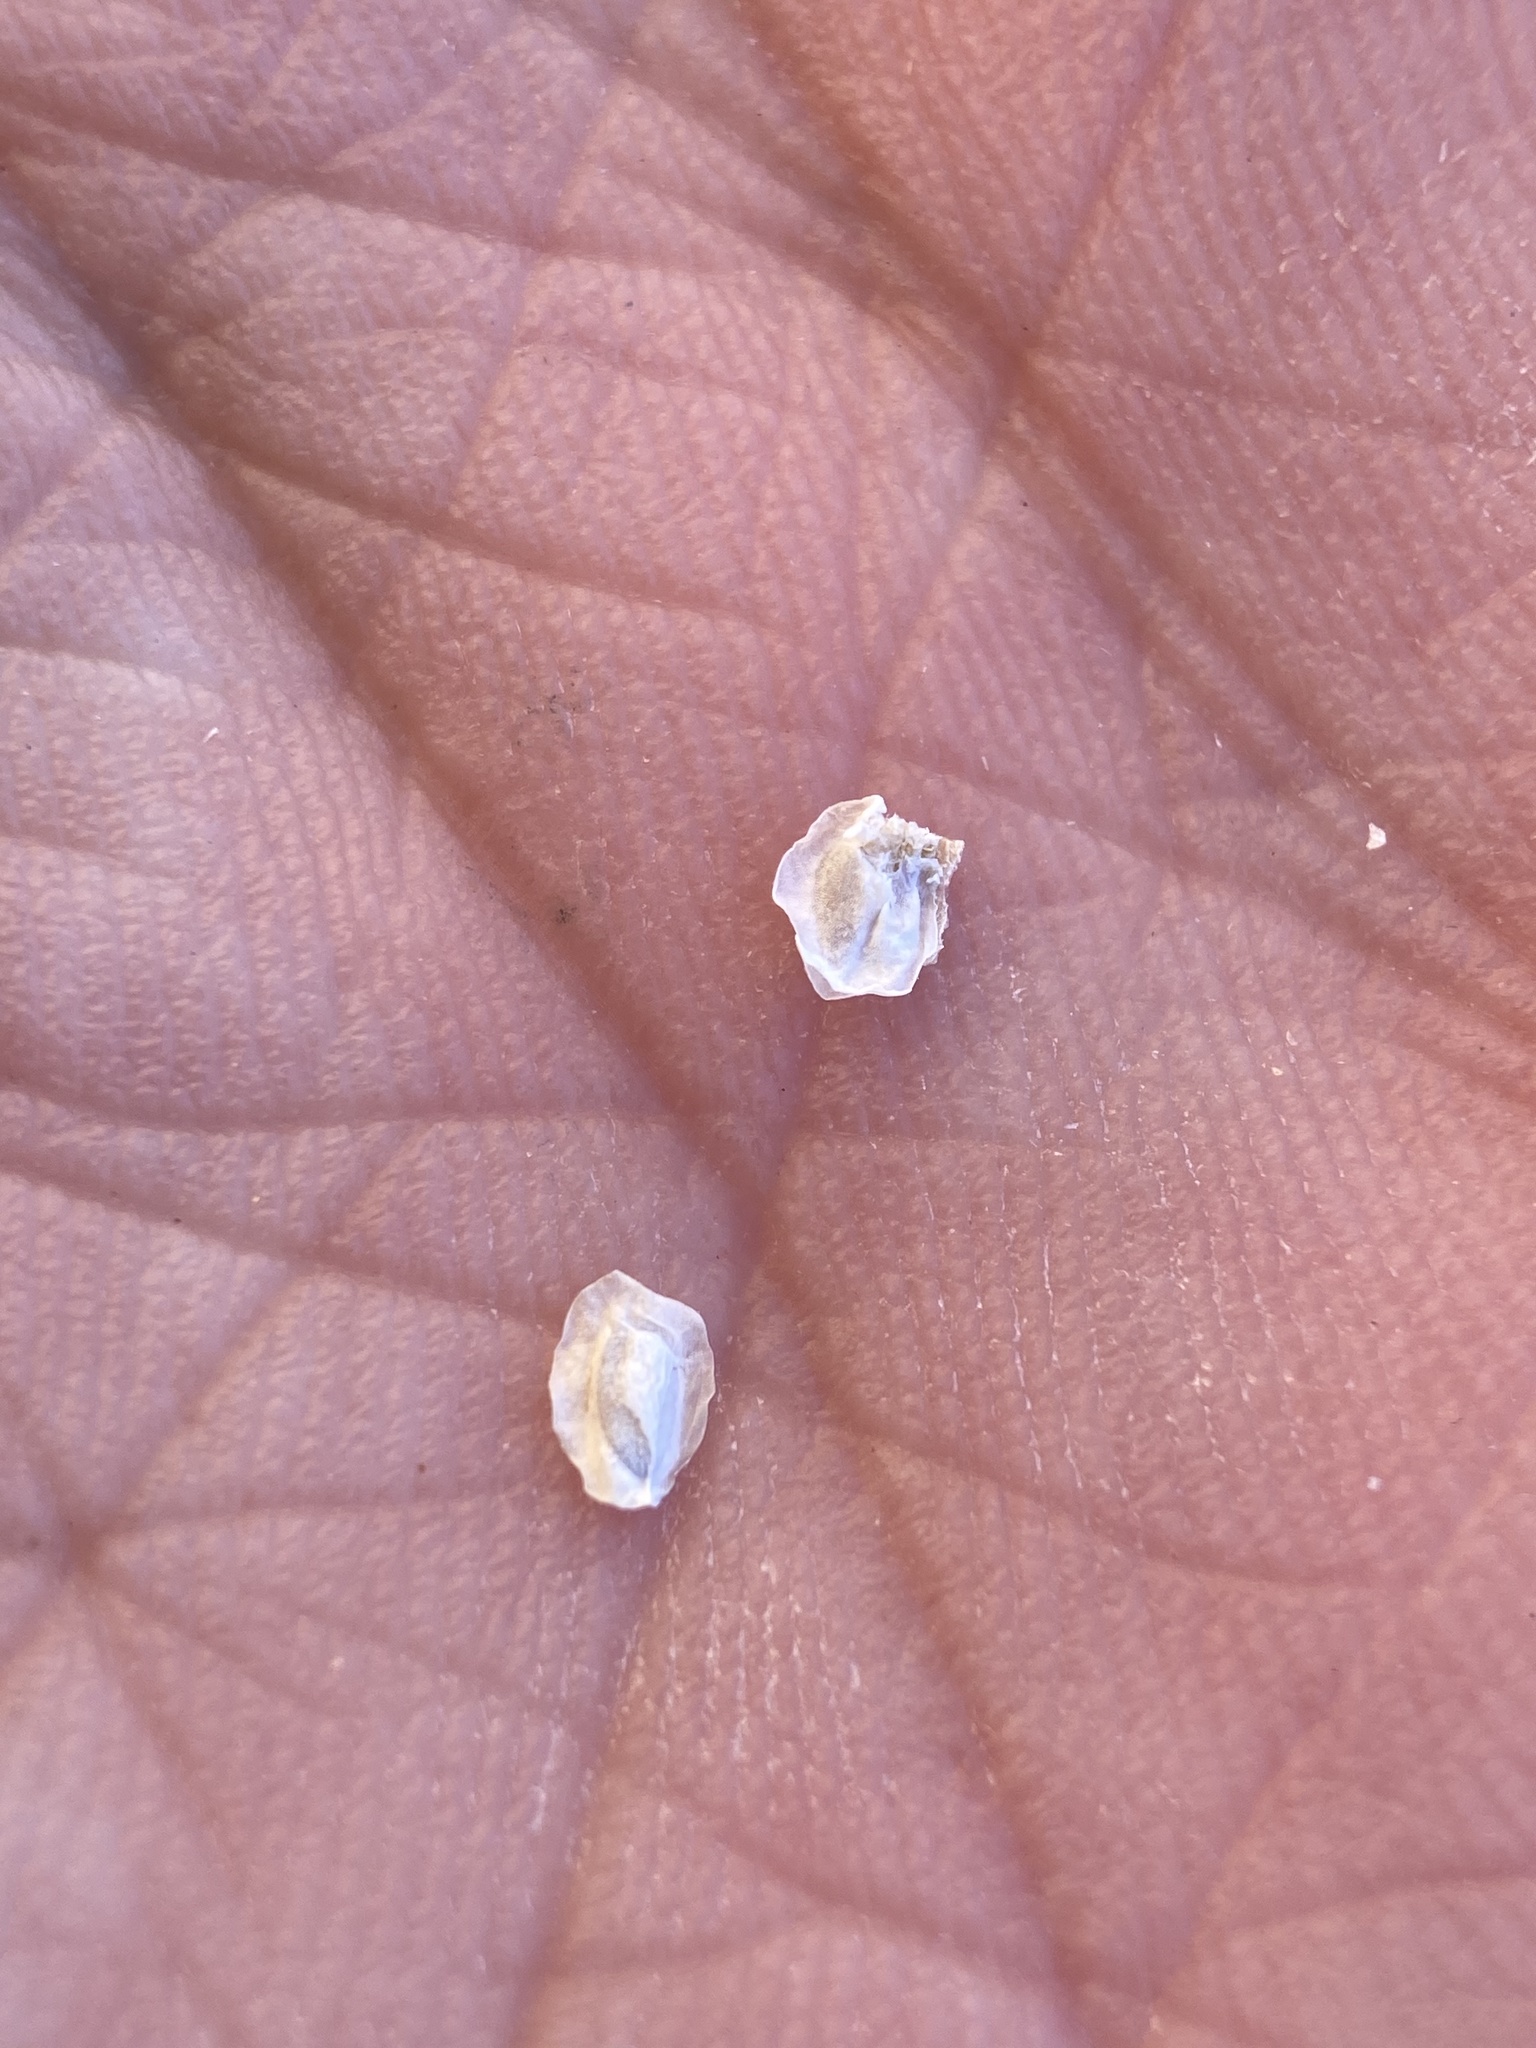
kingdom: Plantae
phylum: Tracheophyta
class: Magnoliopsida
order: Cornales
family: Loasaceae
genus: Mentzelia
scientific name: Mentzelia oreophila
